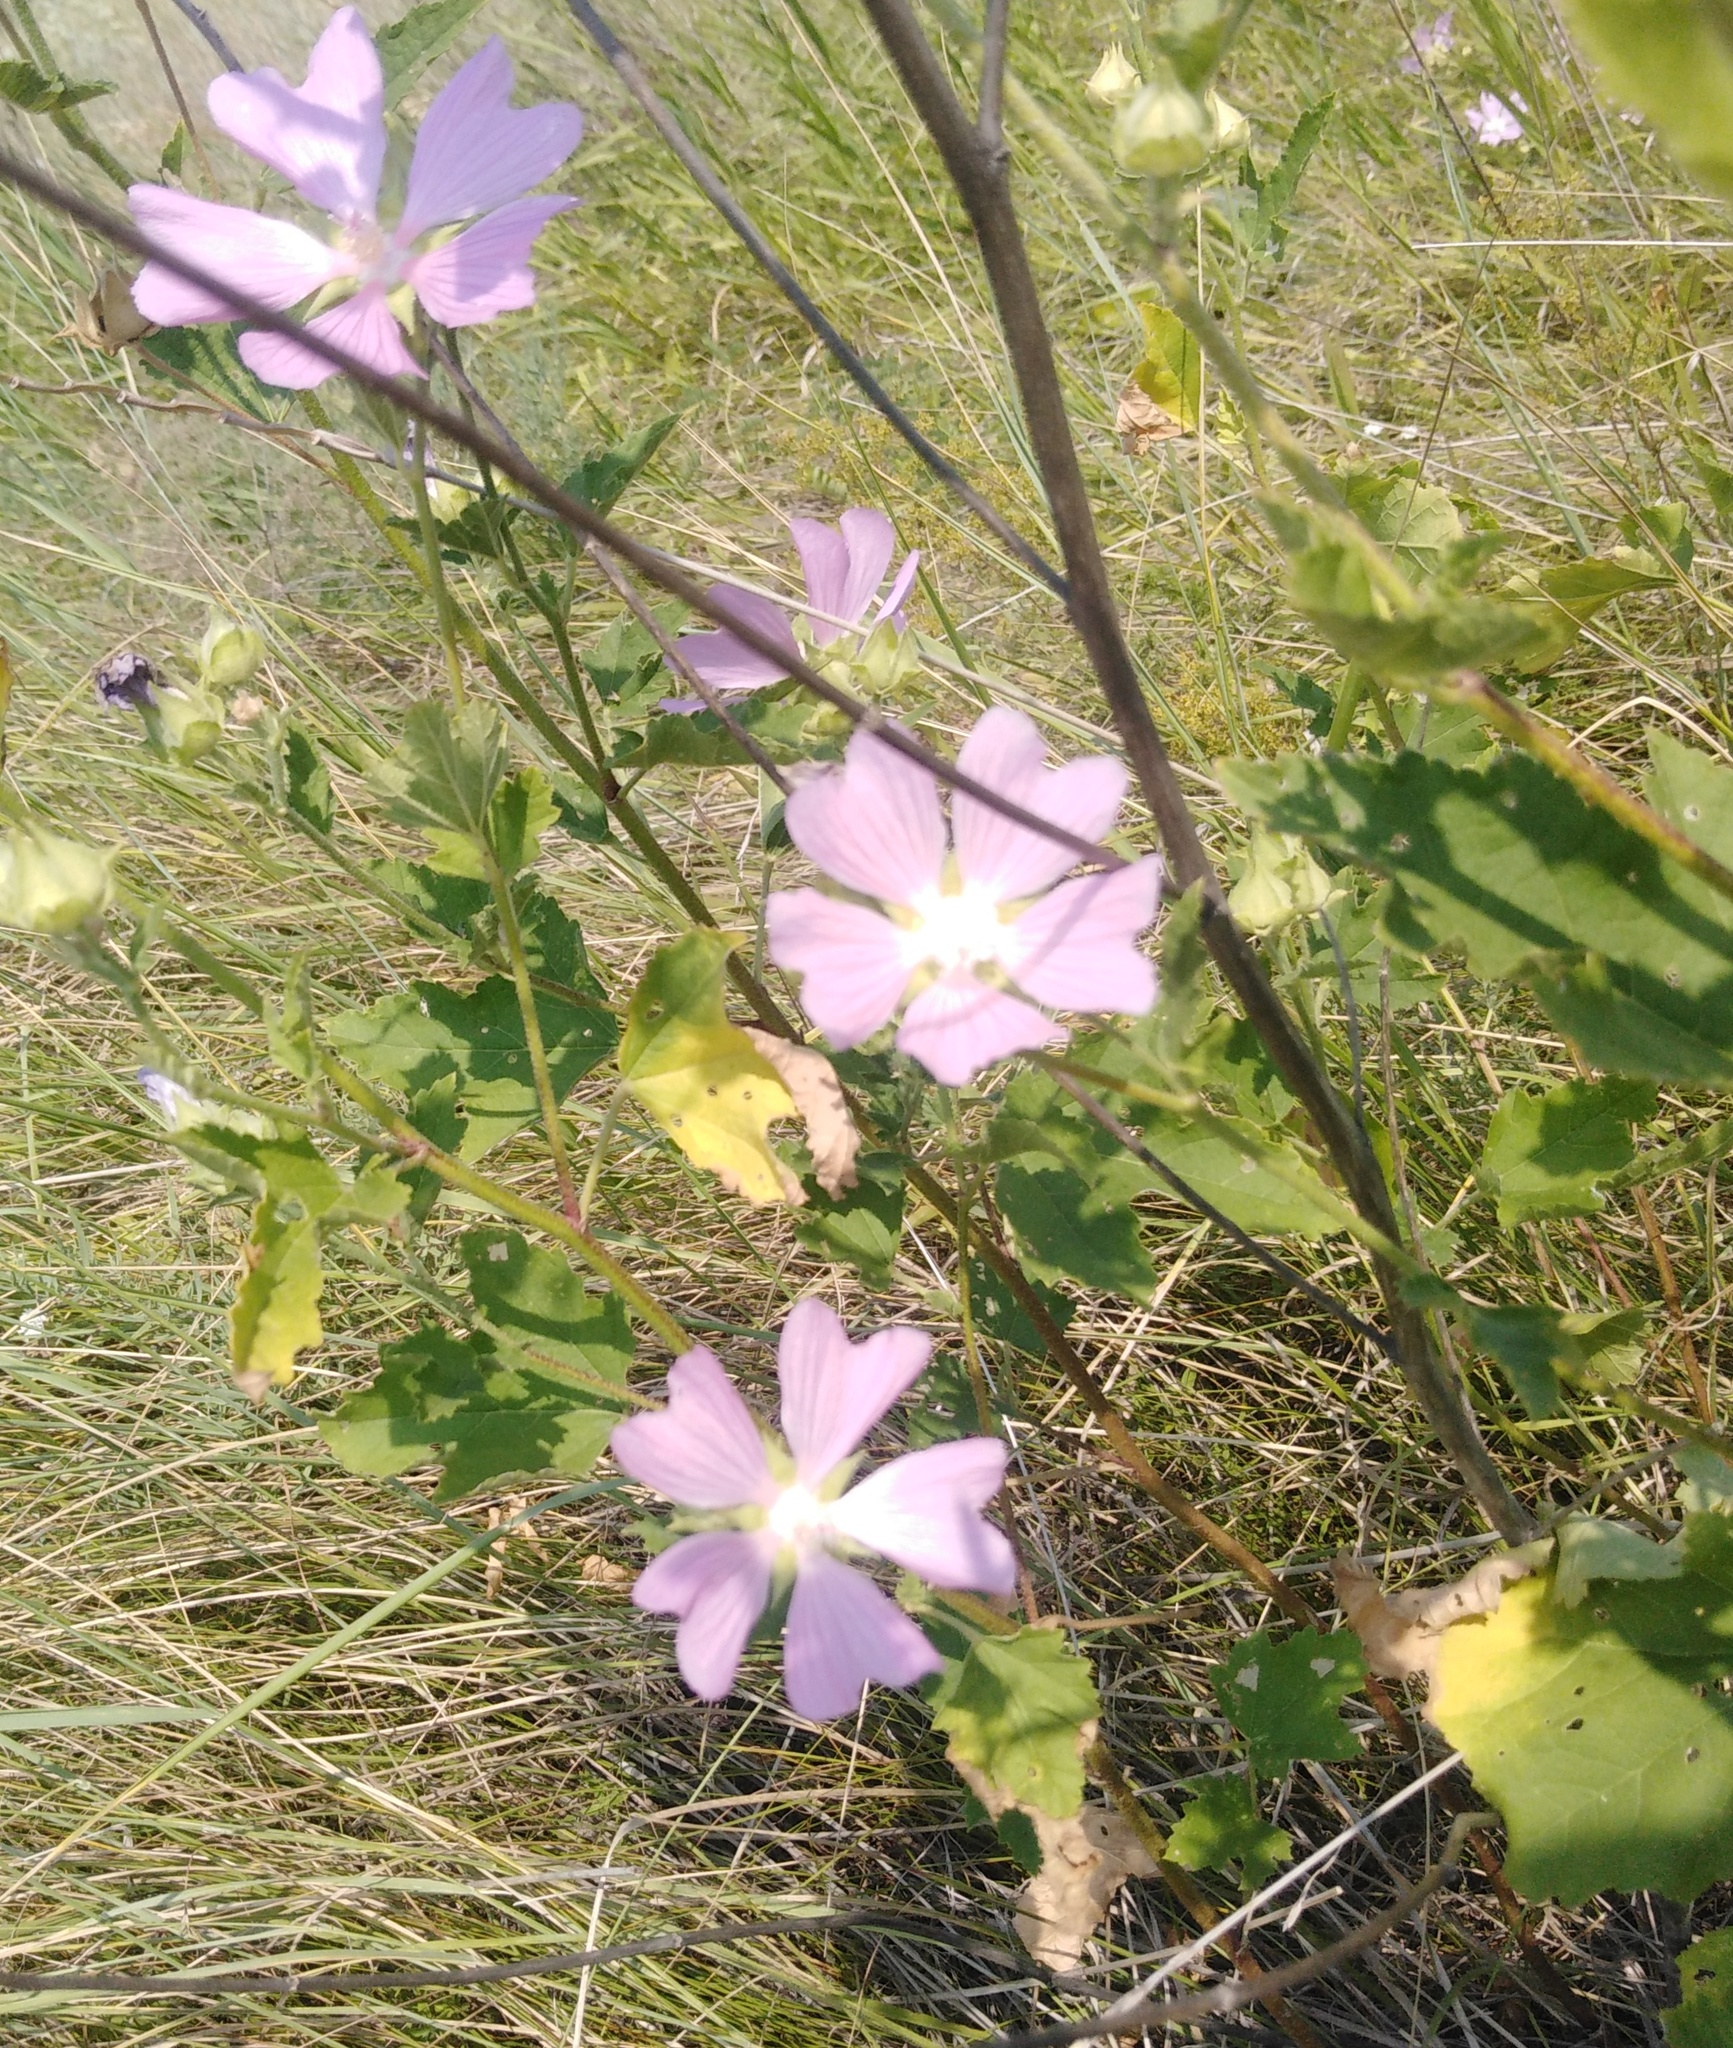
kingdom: Plantae
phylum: Tracheophyta
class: Magnoliopsida
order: Malvales
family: Malvaceae
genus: Malva
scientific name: Malva thuringiaca
